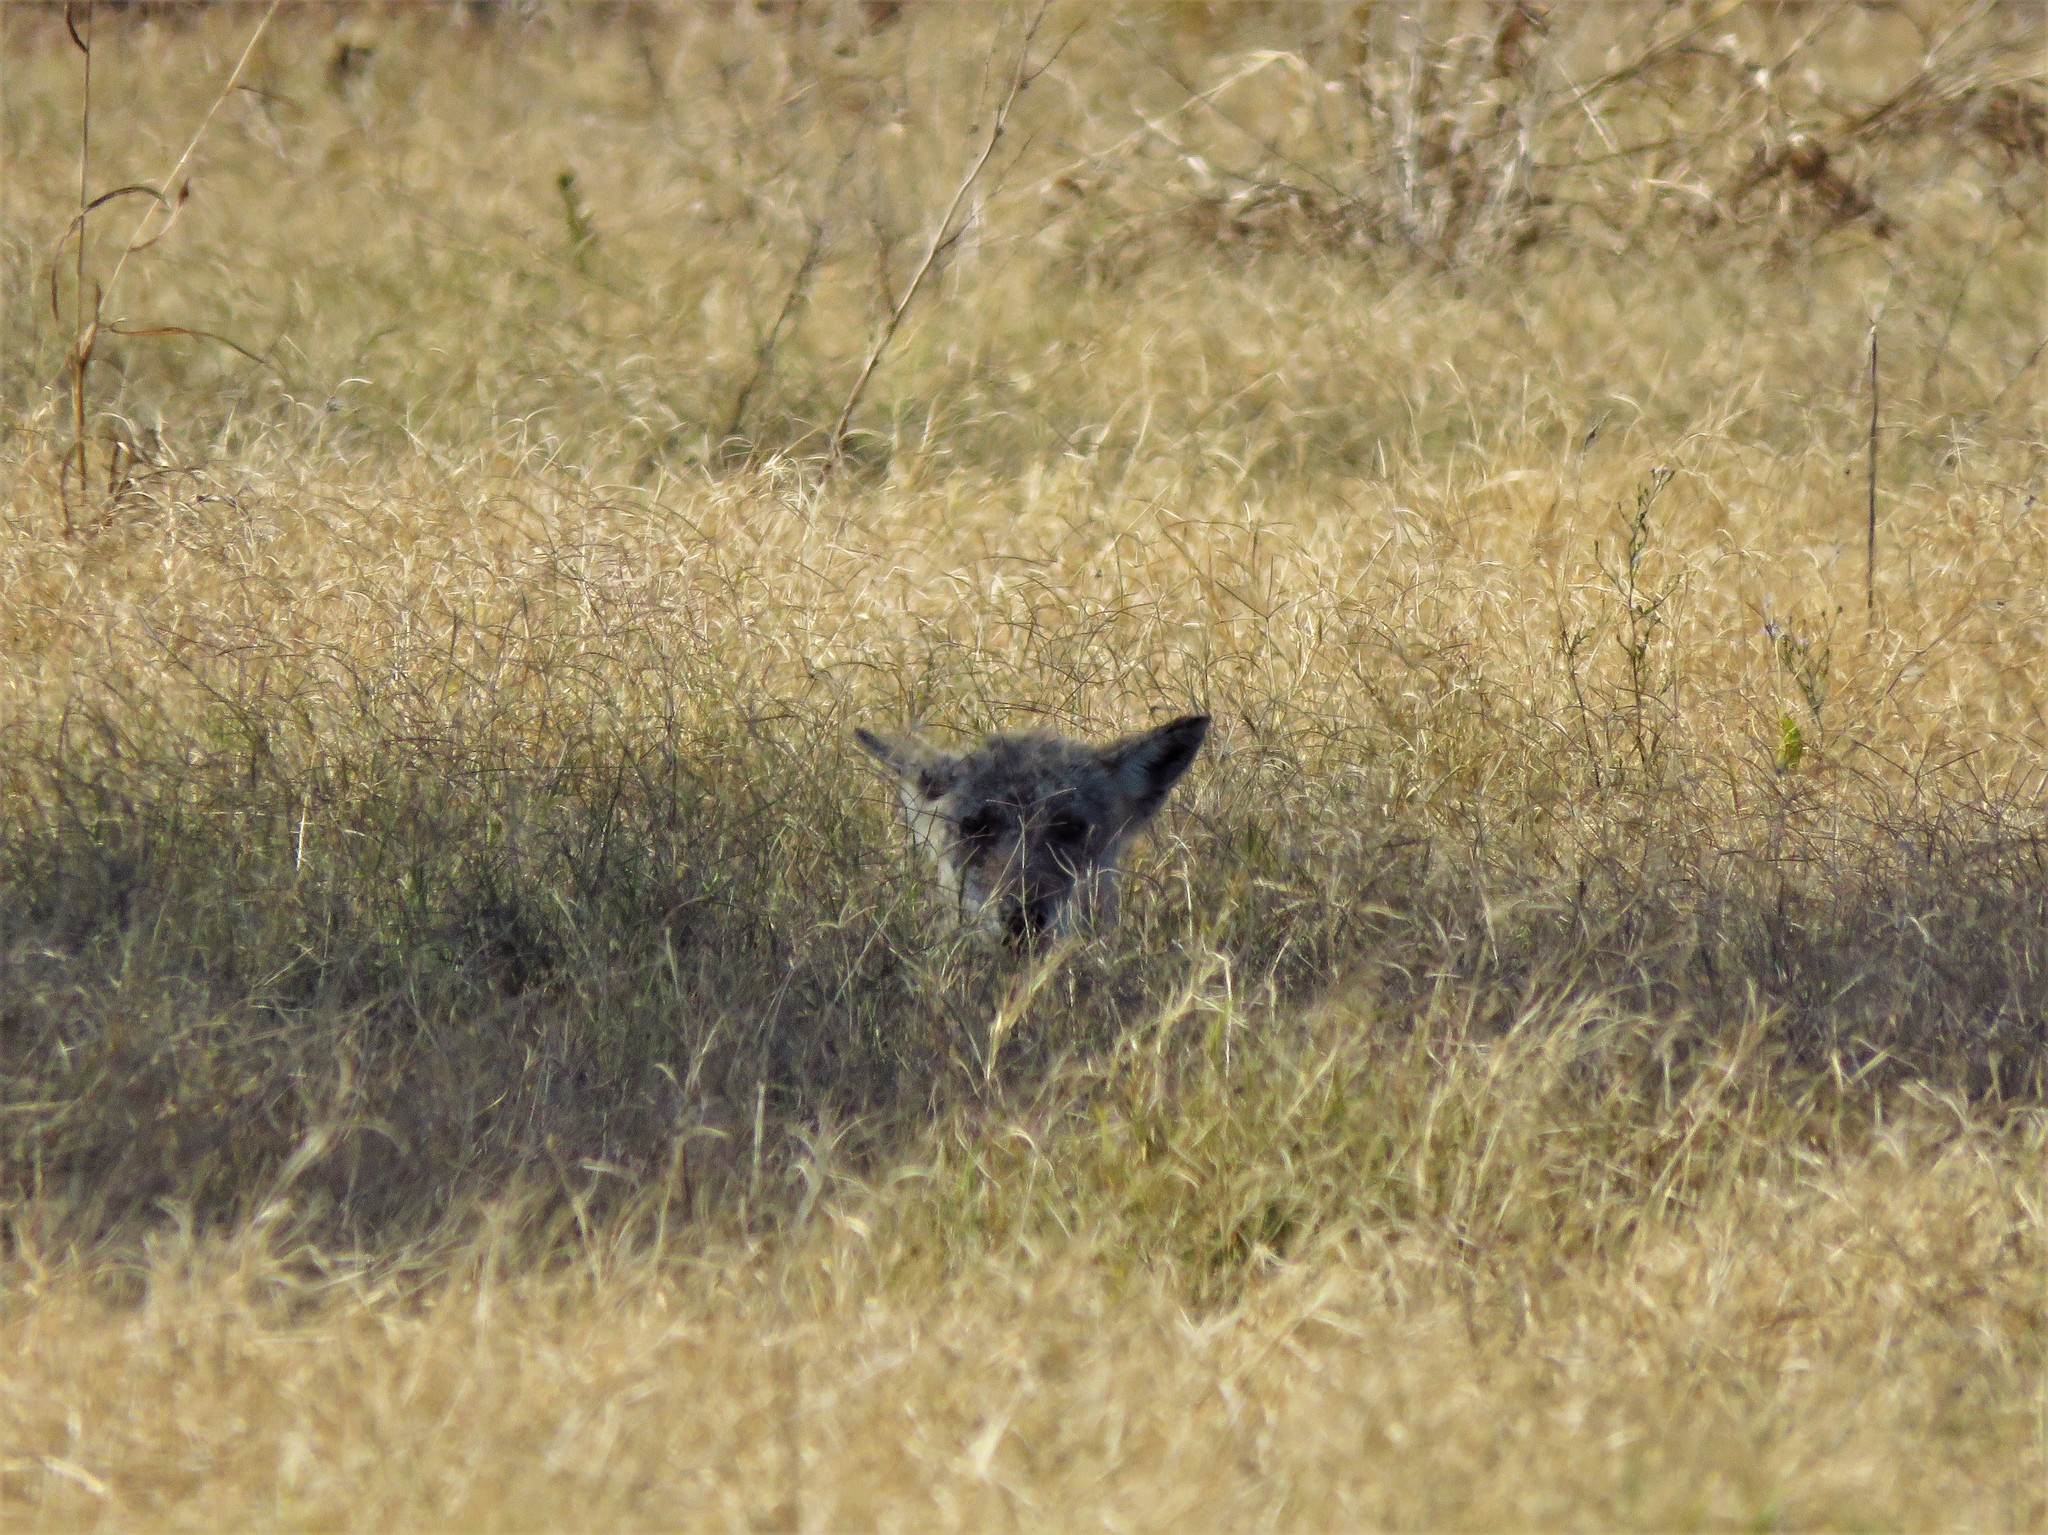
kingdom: Animalia
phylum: Chordata
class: Mammalia
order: Carnivora
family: Canidae
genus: Canis
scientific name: Canis latrans
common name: Coyote
